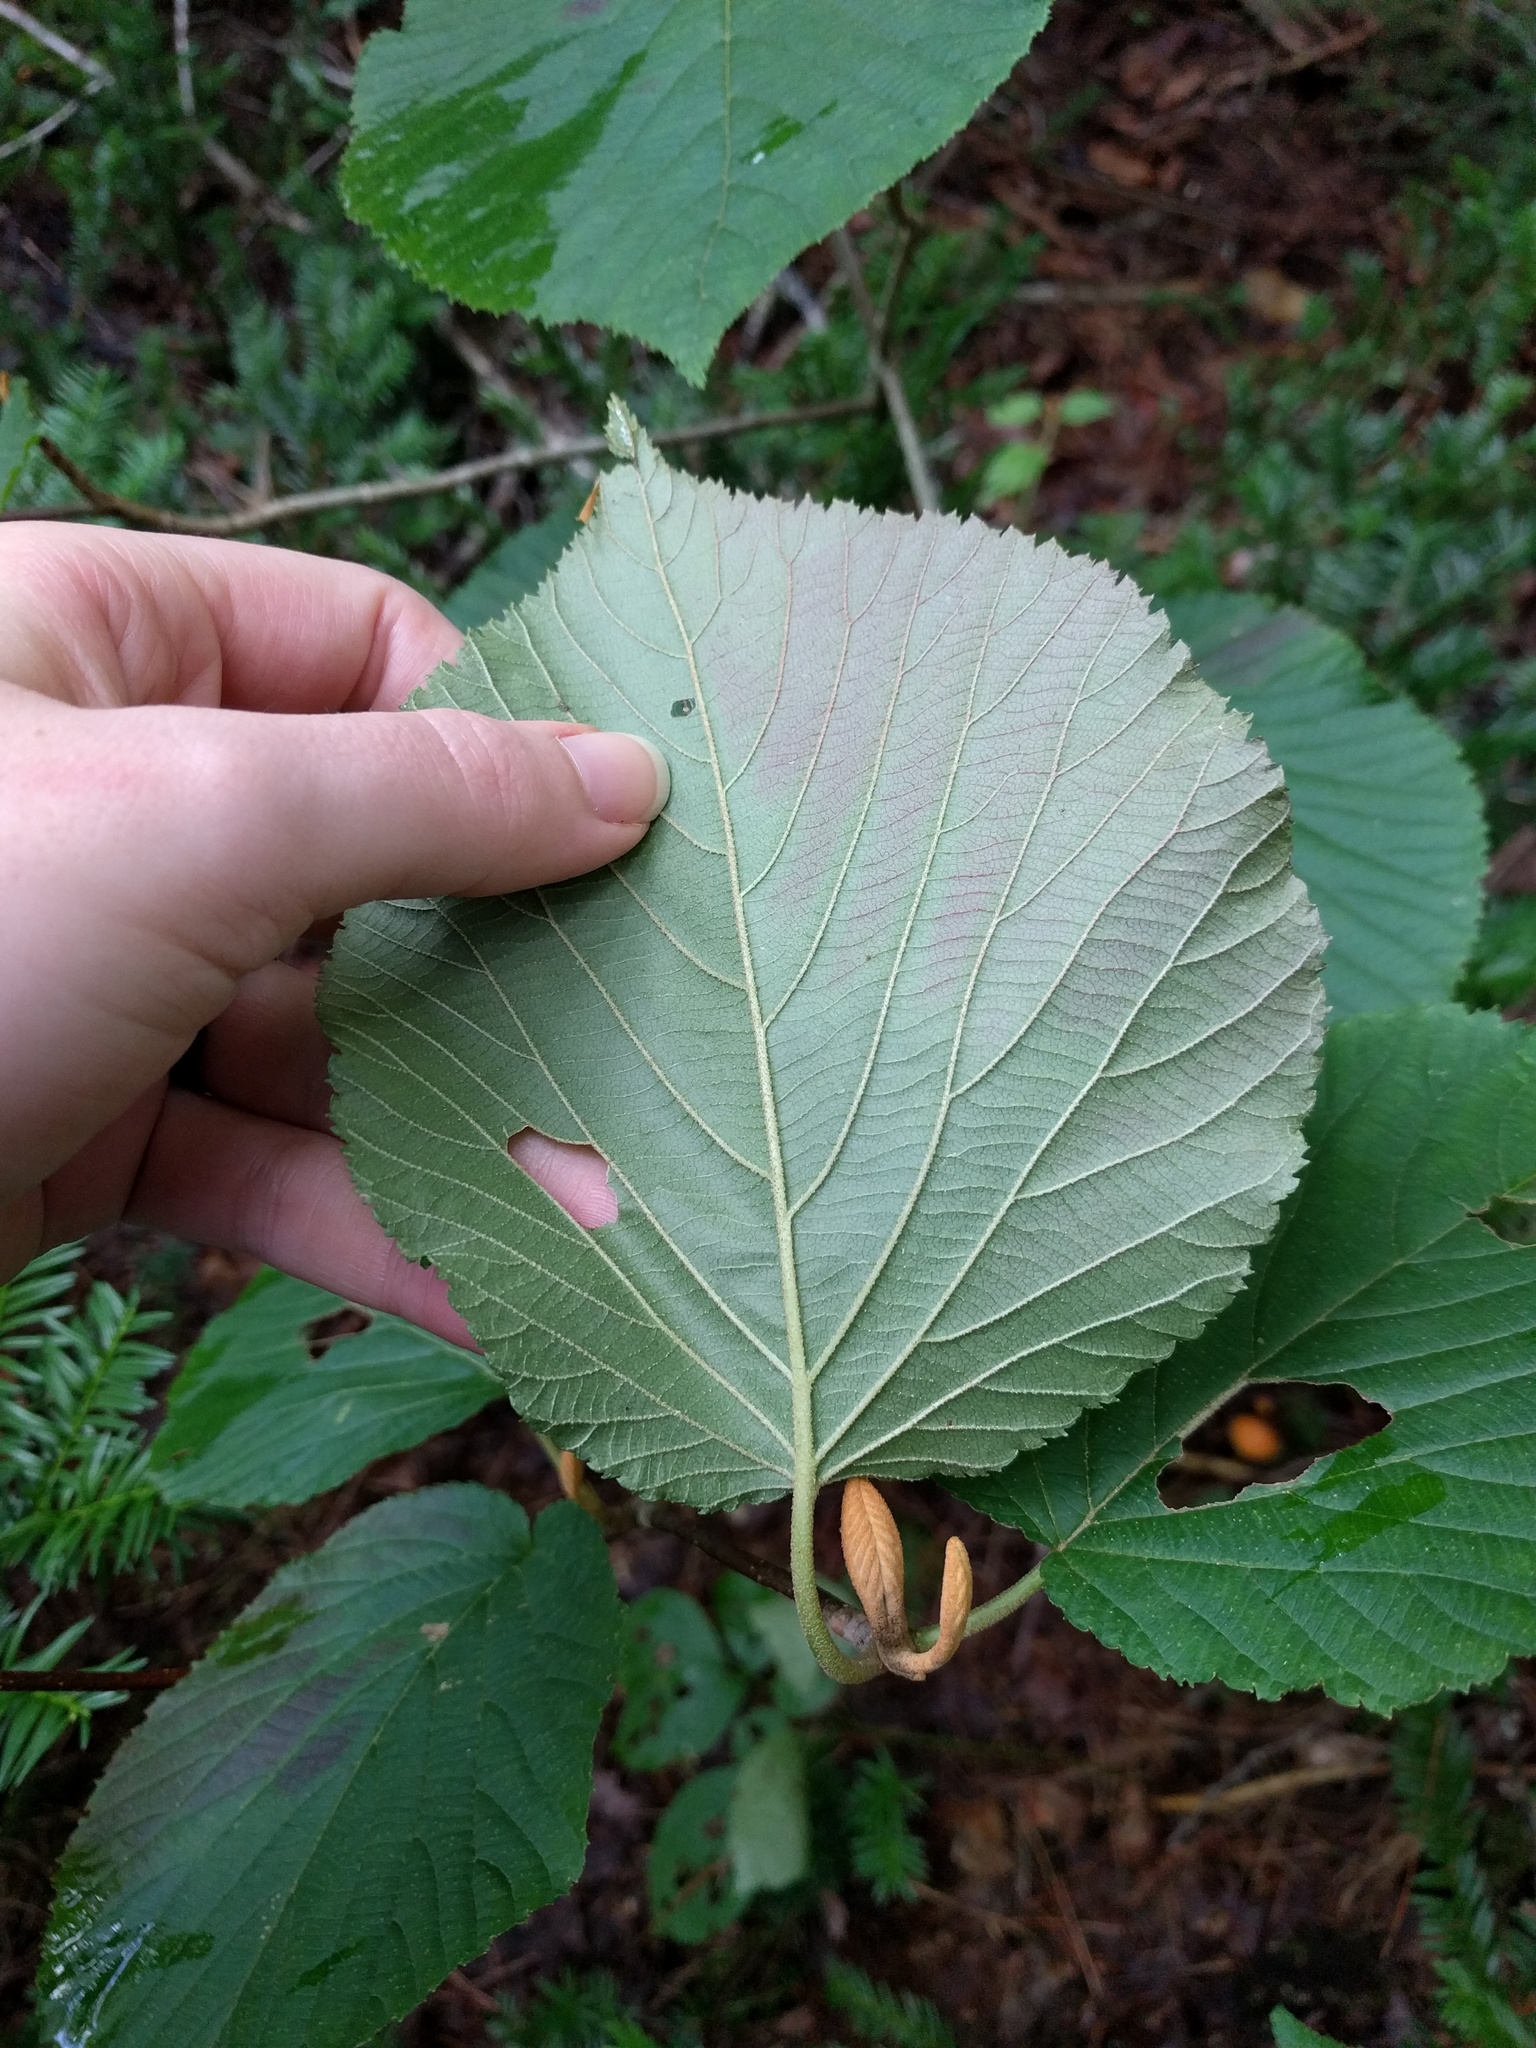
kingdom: Plantae
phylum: Tracheophyta
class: Magnoliopsida
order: Dipsacales
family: Viburnaceae
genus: Viburnum
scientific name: Viburnum lantanoides
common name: Hobblebush
